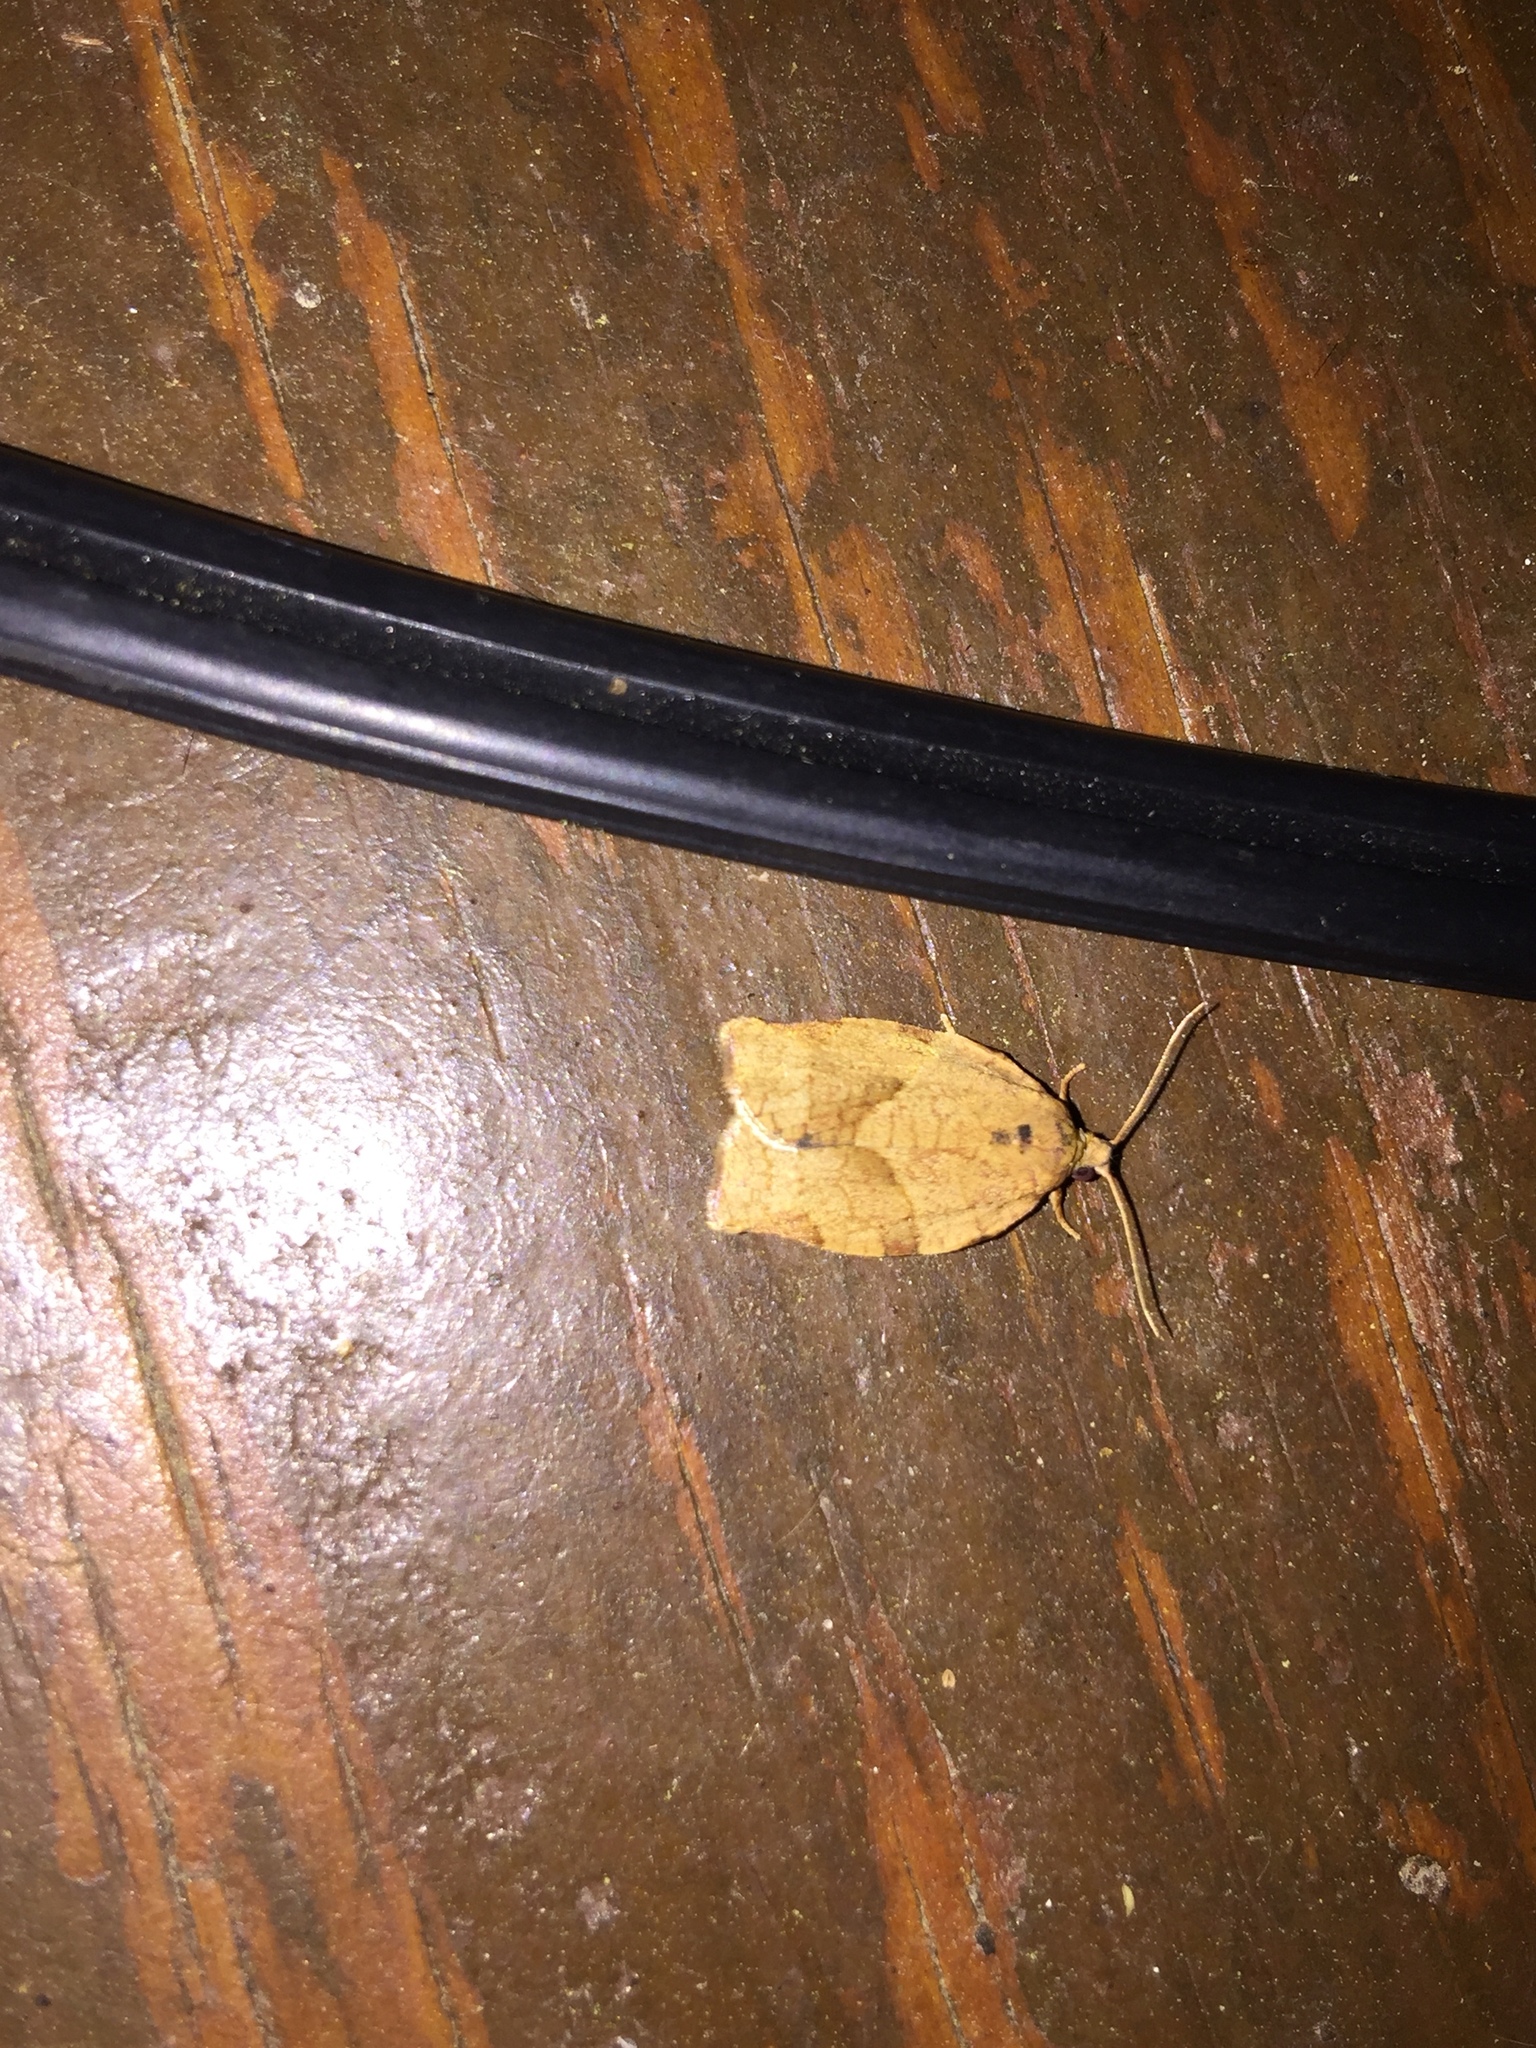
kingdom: Animalia
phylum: Arthropoda
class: Insecta
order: Lepidoptera
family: Tortricidae
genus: Choristoneura
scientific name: Choristoneura rosaceana
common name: Oblique-banded leafroller moth
